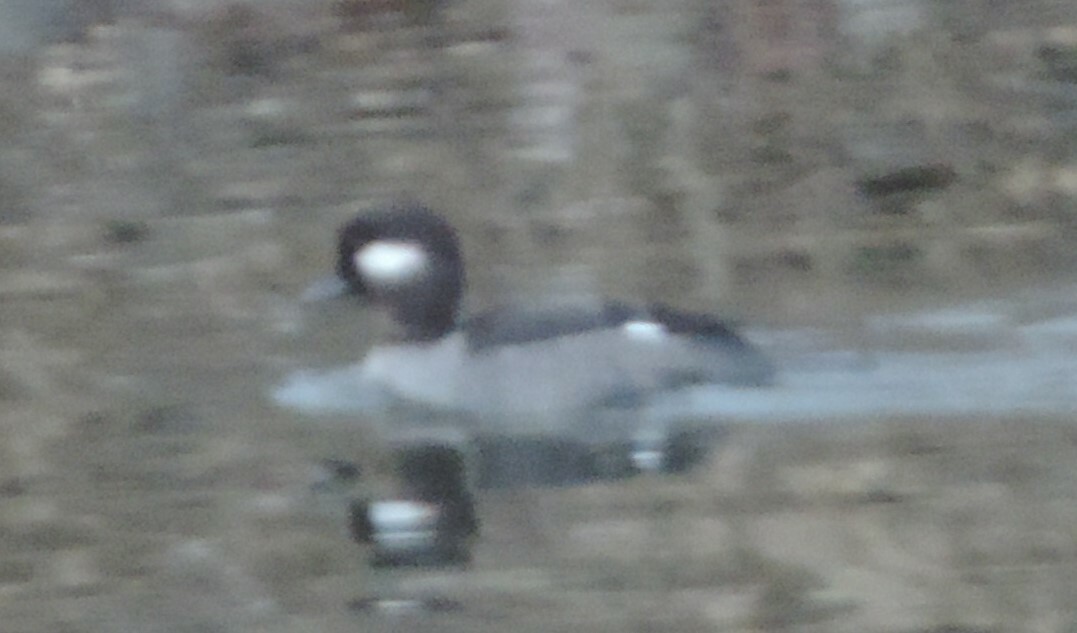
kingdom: Animalia
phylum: Chordata
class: Aves
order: Anseriformes
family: Anatidae
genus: Bucephala
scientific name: Bucephala albeola
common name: Bufflehead
